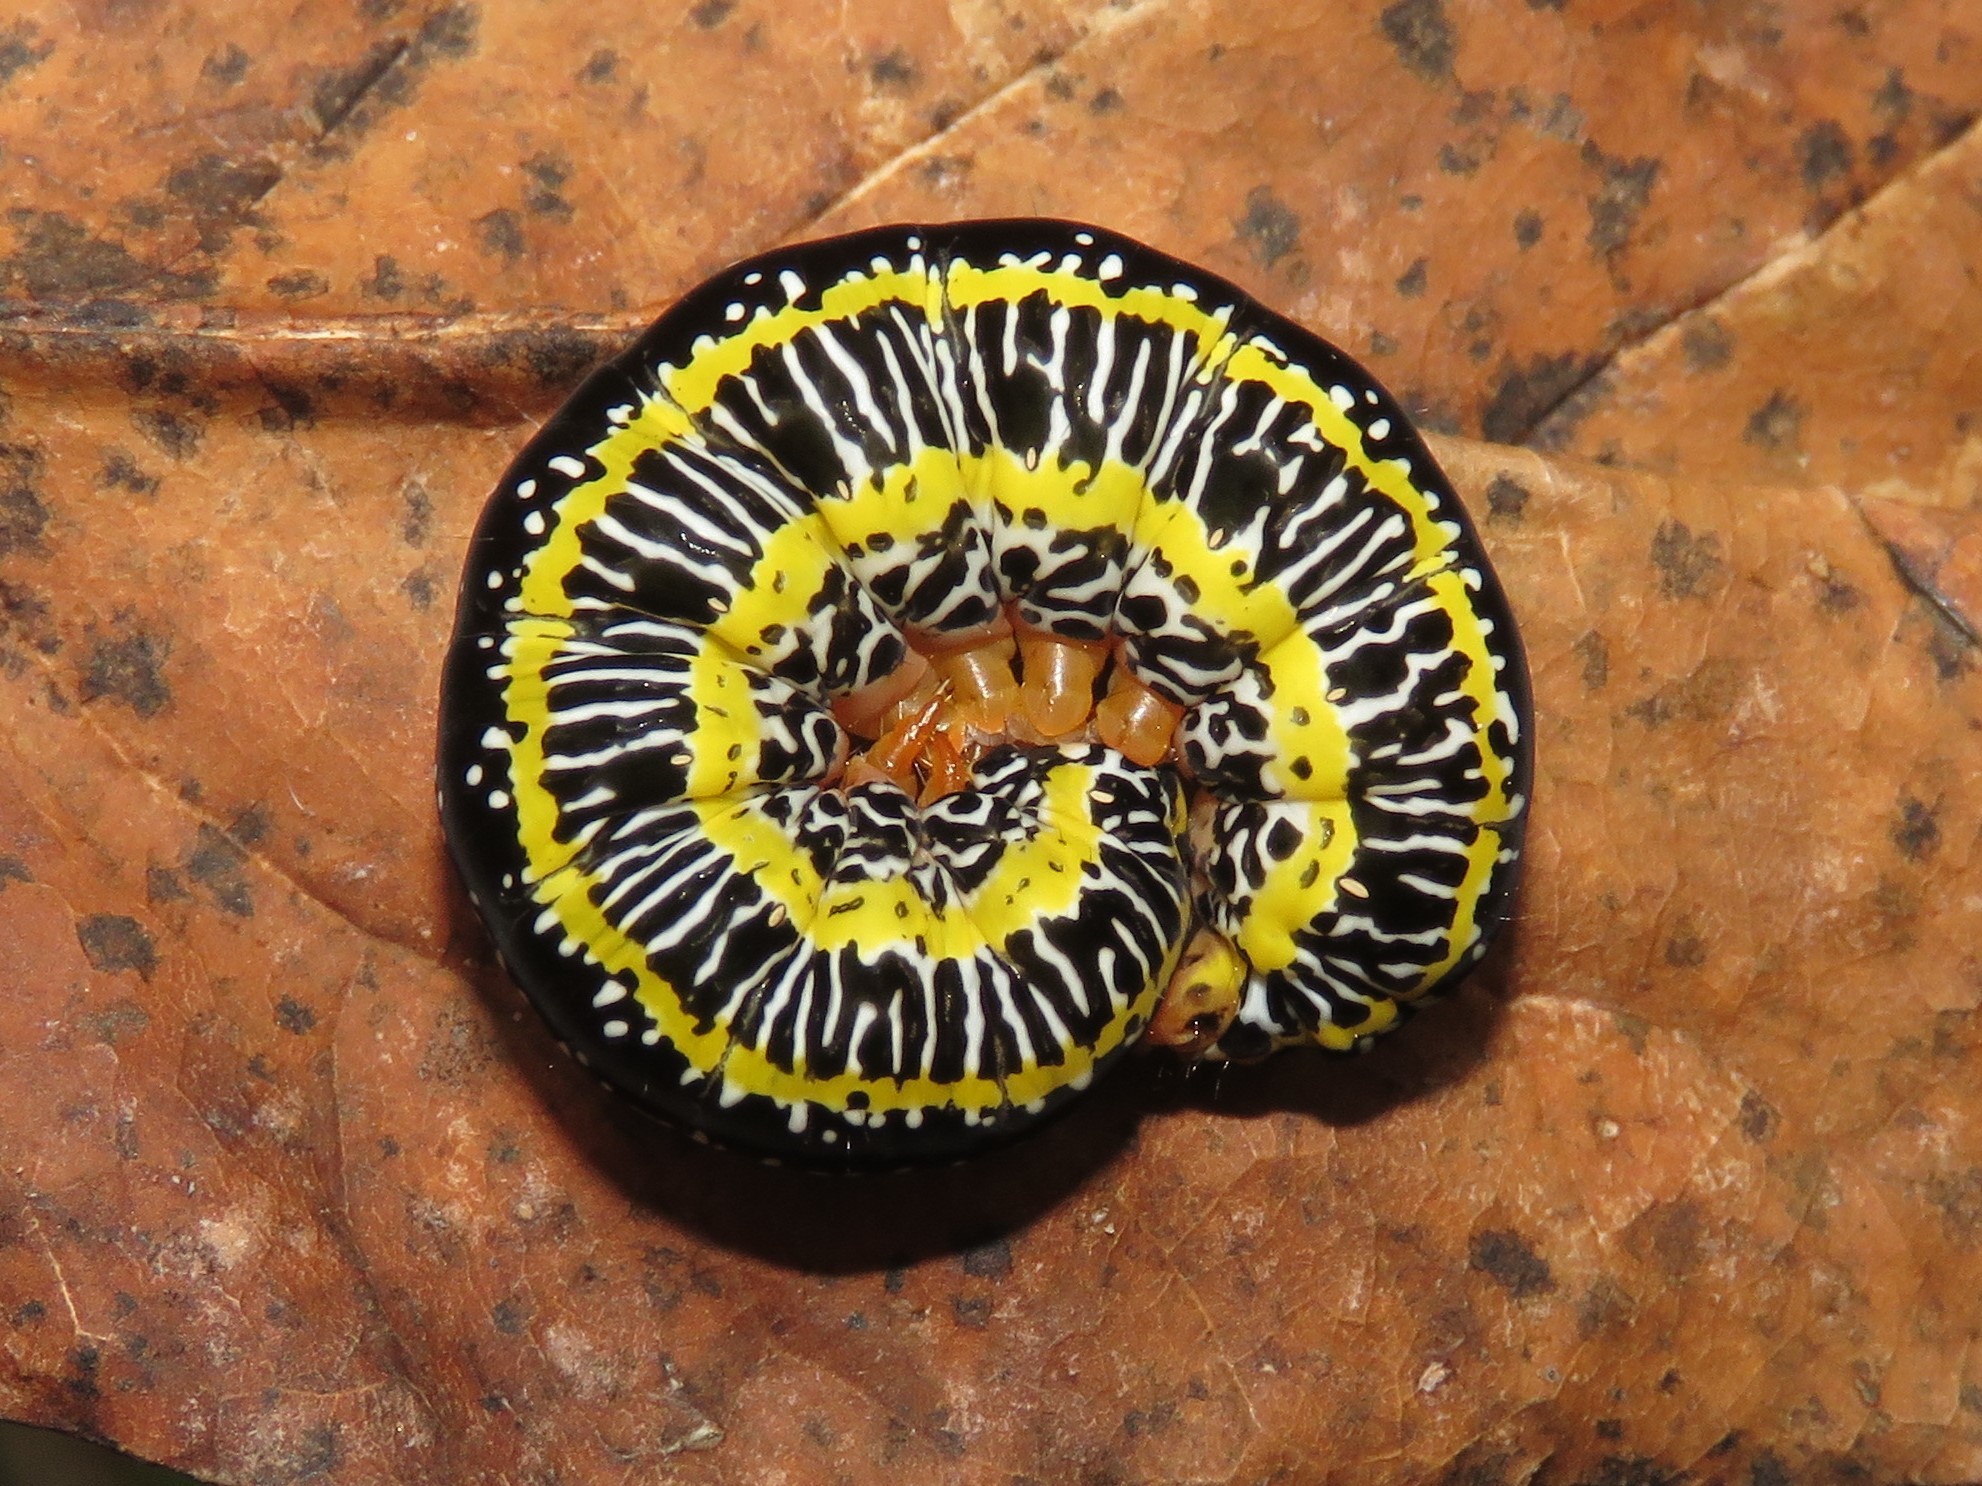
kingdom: Animalia
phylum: Arthropoda
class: Insecta
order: Lepidoptera
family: Noctuidae
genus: Melanchra
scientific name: Melanchra picta
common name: Zebra caterpillar
